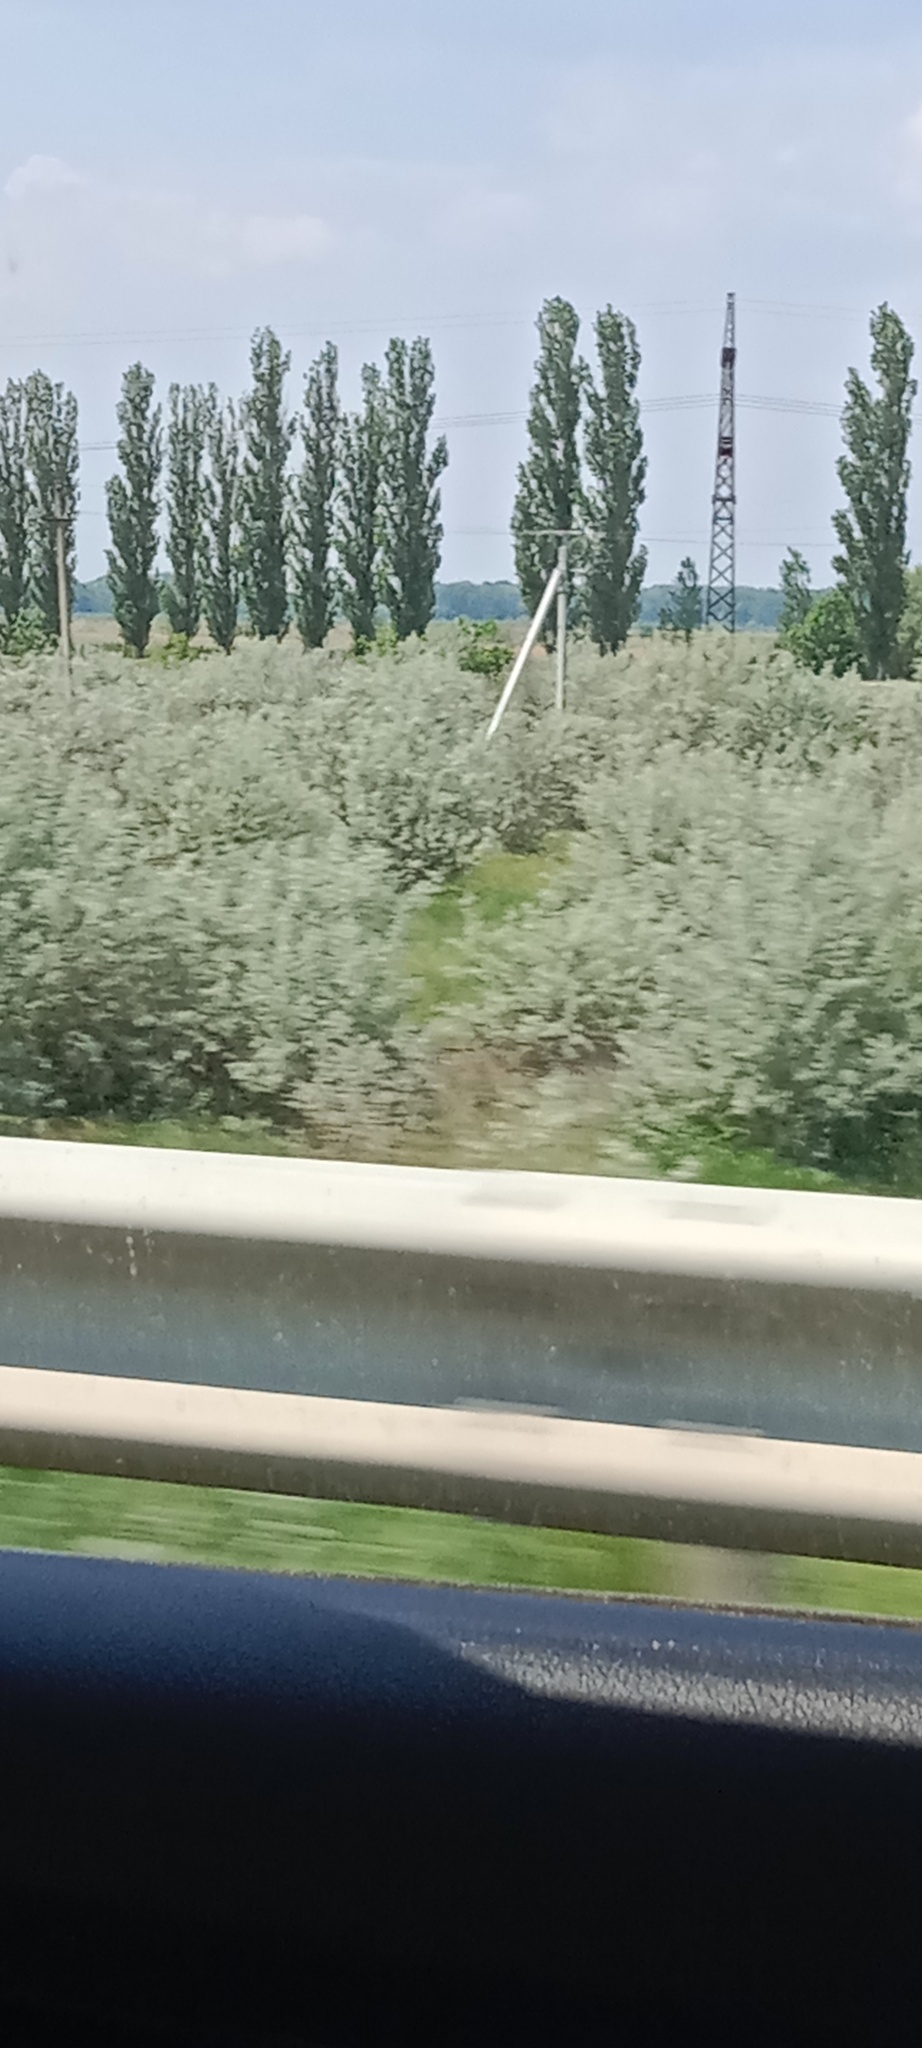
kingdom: Plantae
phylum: Tracheophyta
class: Magnoliopsida
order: Rosales
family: Elaeagnaceae
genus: Elaeagnus
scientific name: Elaeagnus angustifolia
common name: Russian olive
